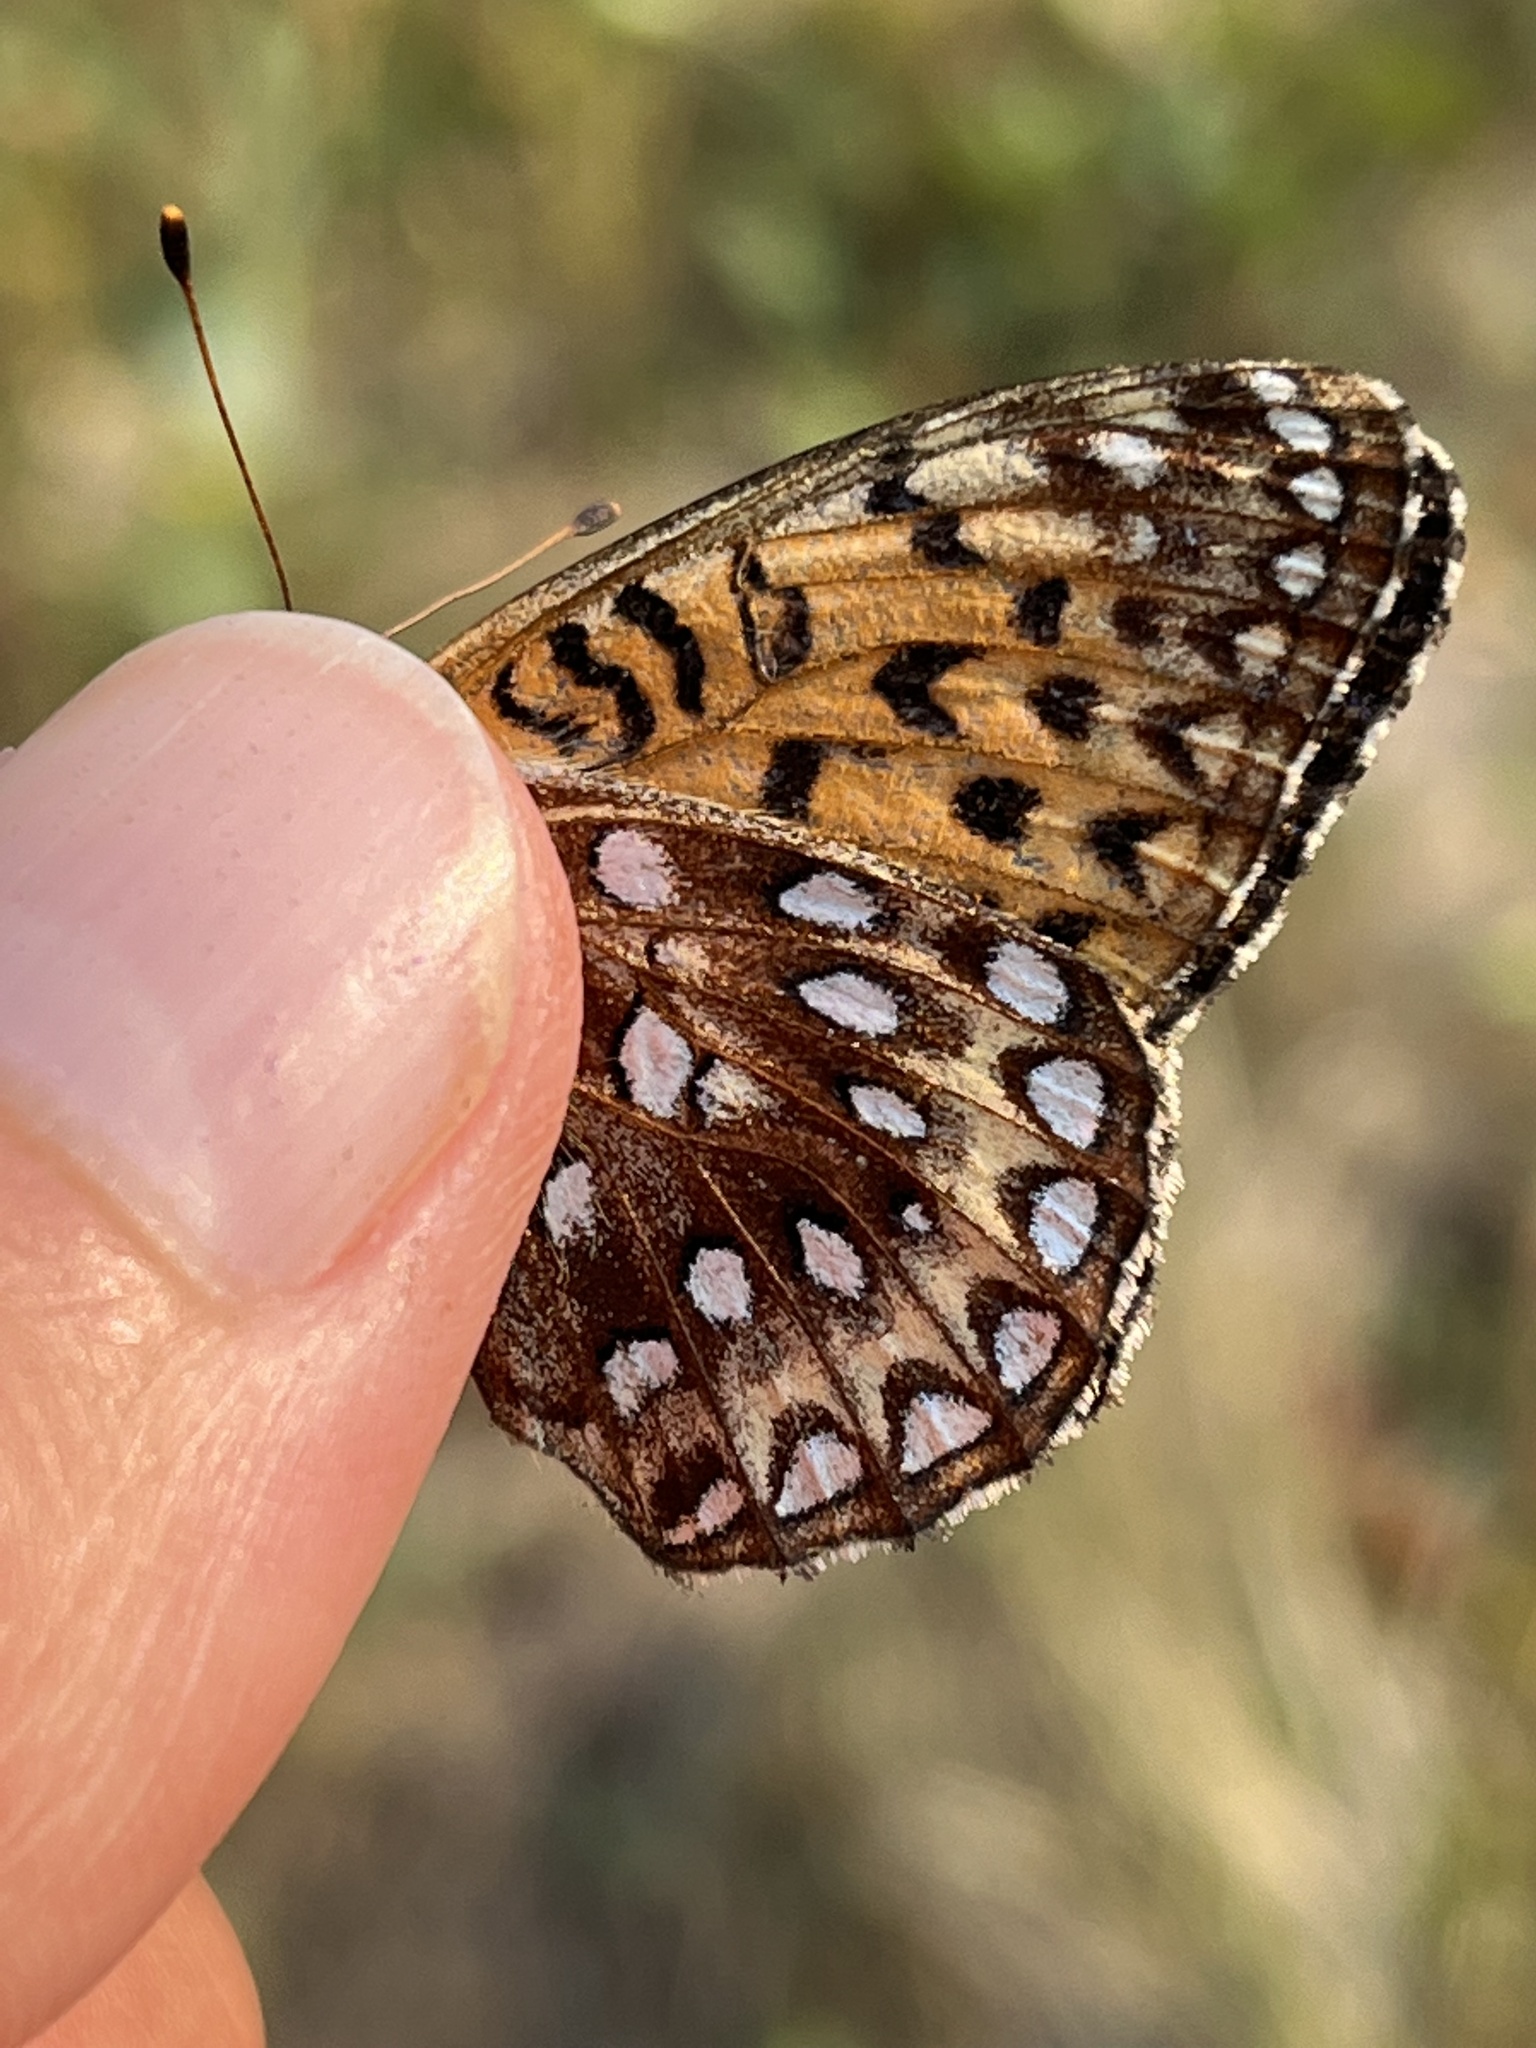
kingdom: Animalia
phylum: Arthropoda
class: Insecta
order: Lepidoptera
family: Nymphalidae
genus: Speyeria
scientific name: Speyeria atlantis
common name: Atlantis fritillary
